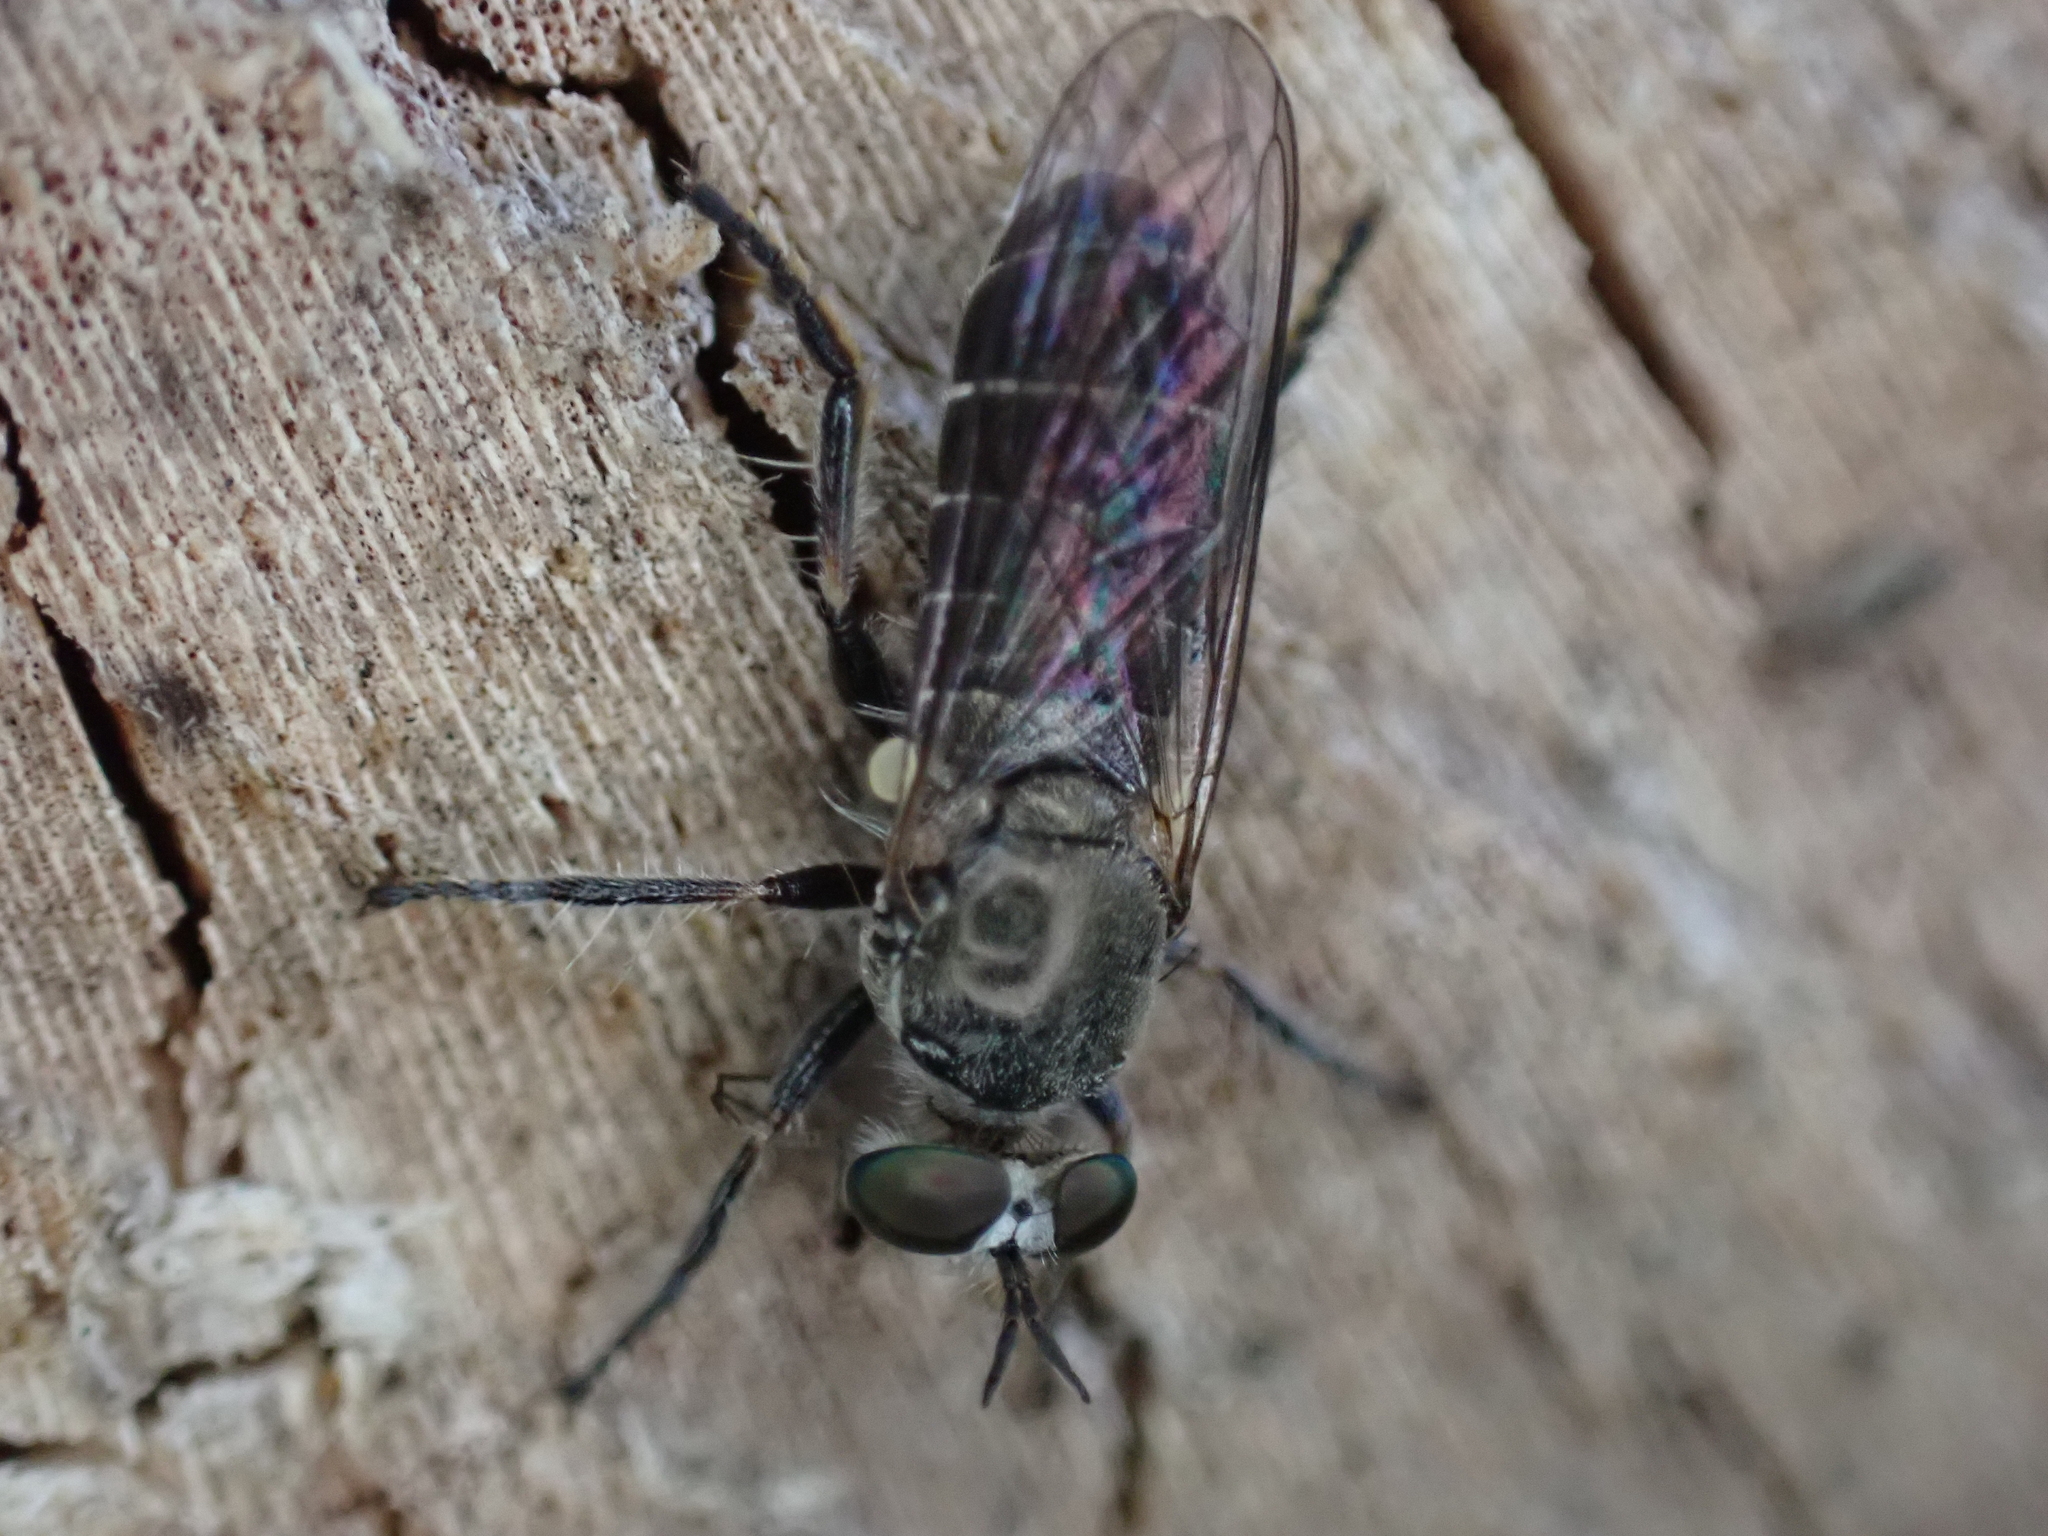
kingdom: Animalia
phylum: Arthropoda
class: Insecta
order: Diptera
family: Asilidae
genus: Atomosia
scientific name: Atomosia puella
